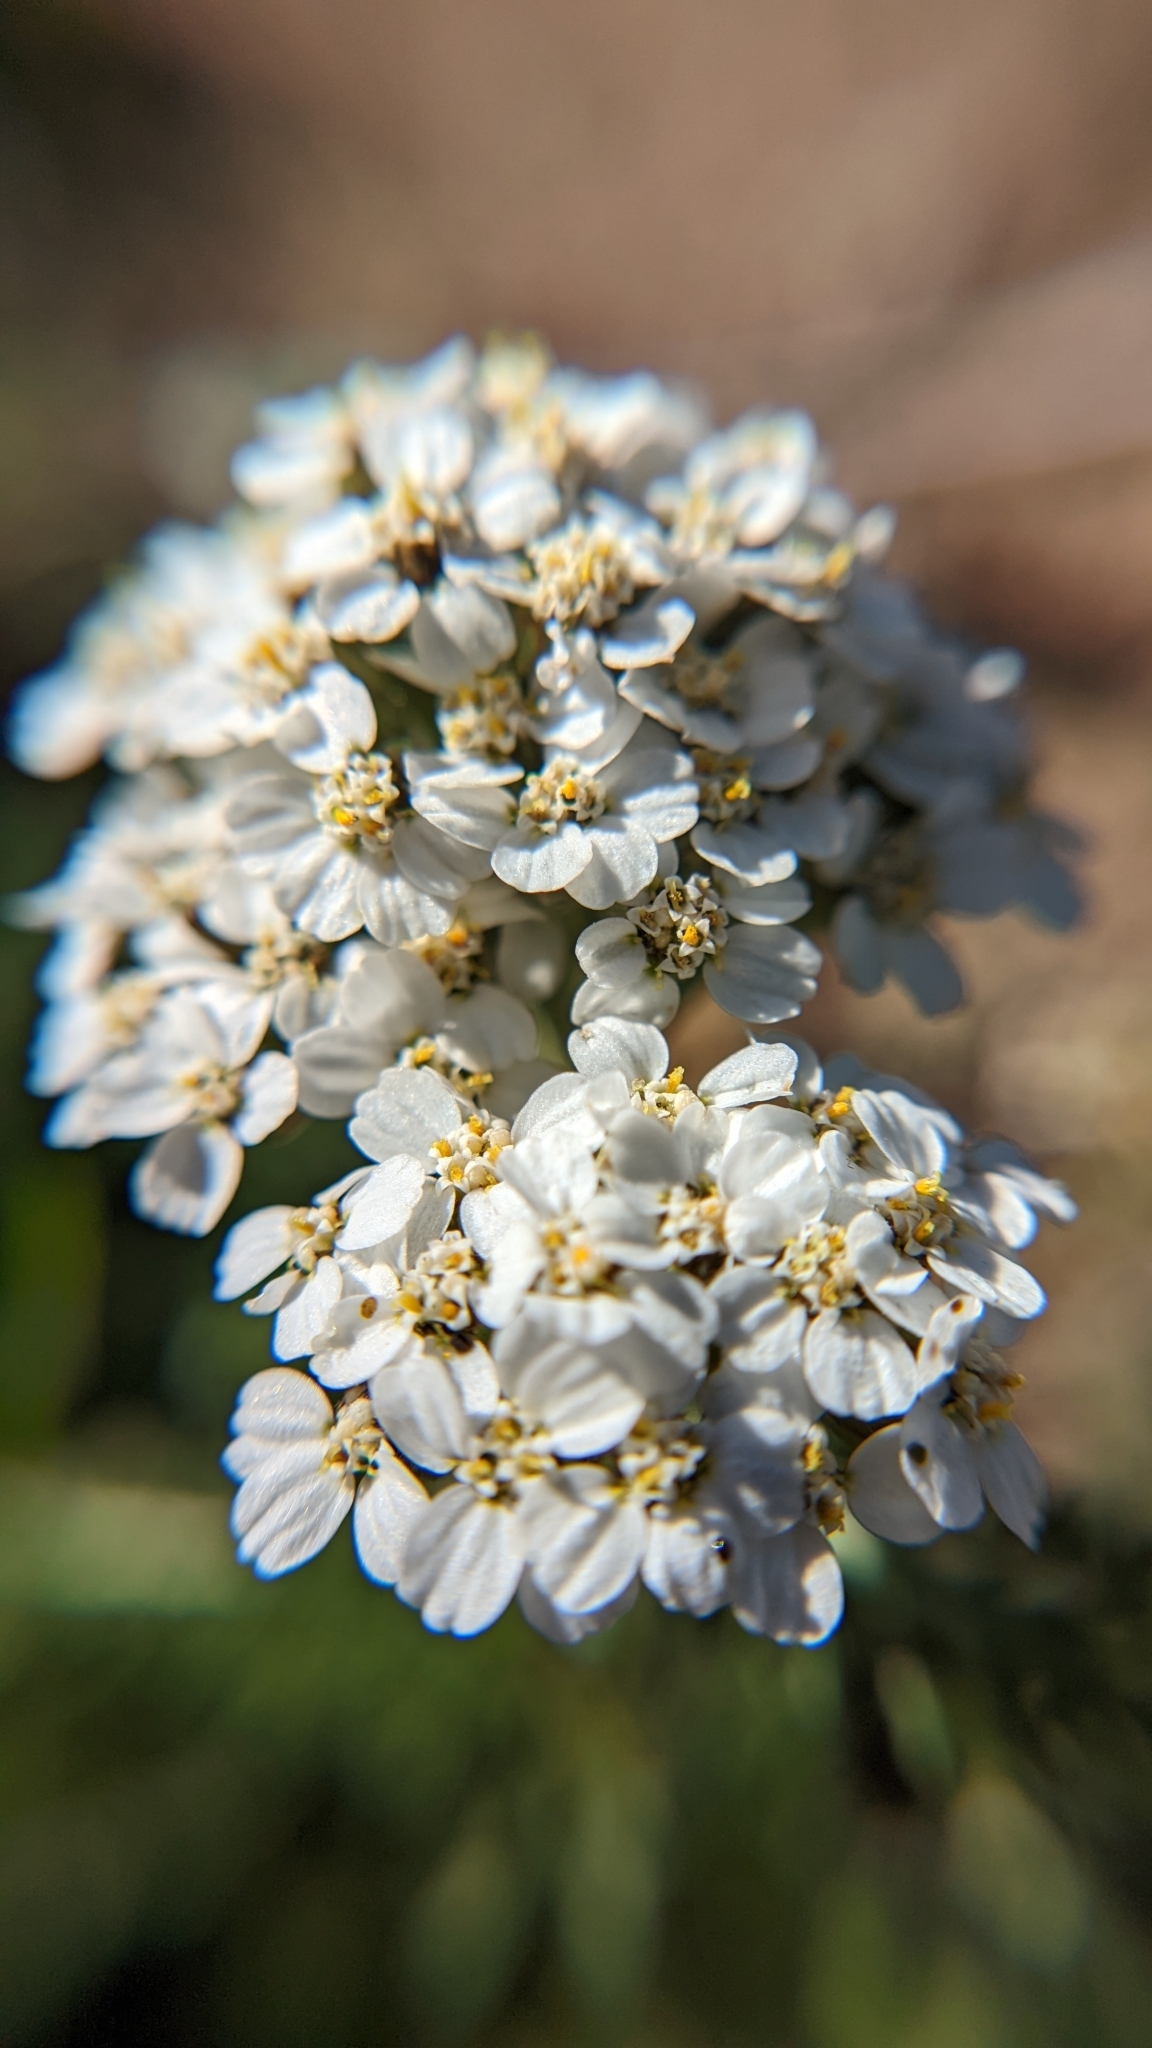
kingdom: Plantae
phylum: Tracheophyta
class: Magnoliopsida
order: Asterales
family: Asteraceae
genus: Achillea
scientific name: Achillea millefolium
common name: Yarrow
